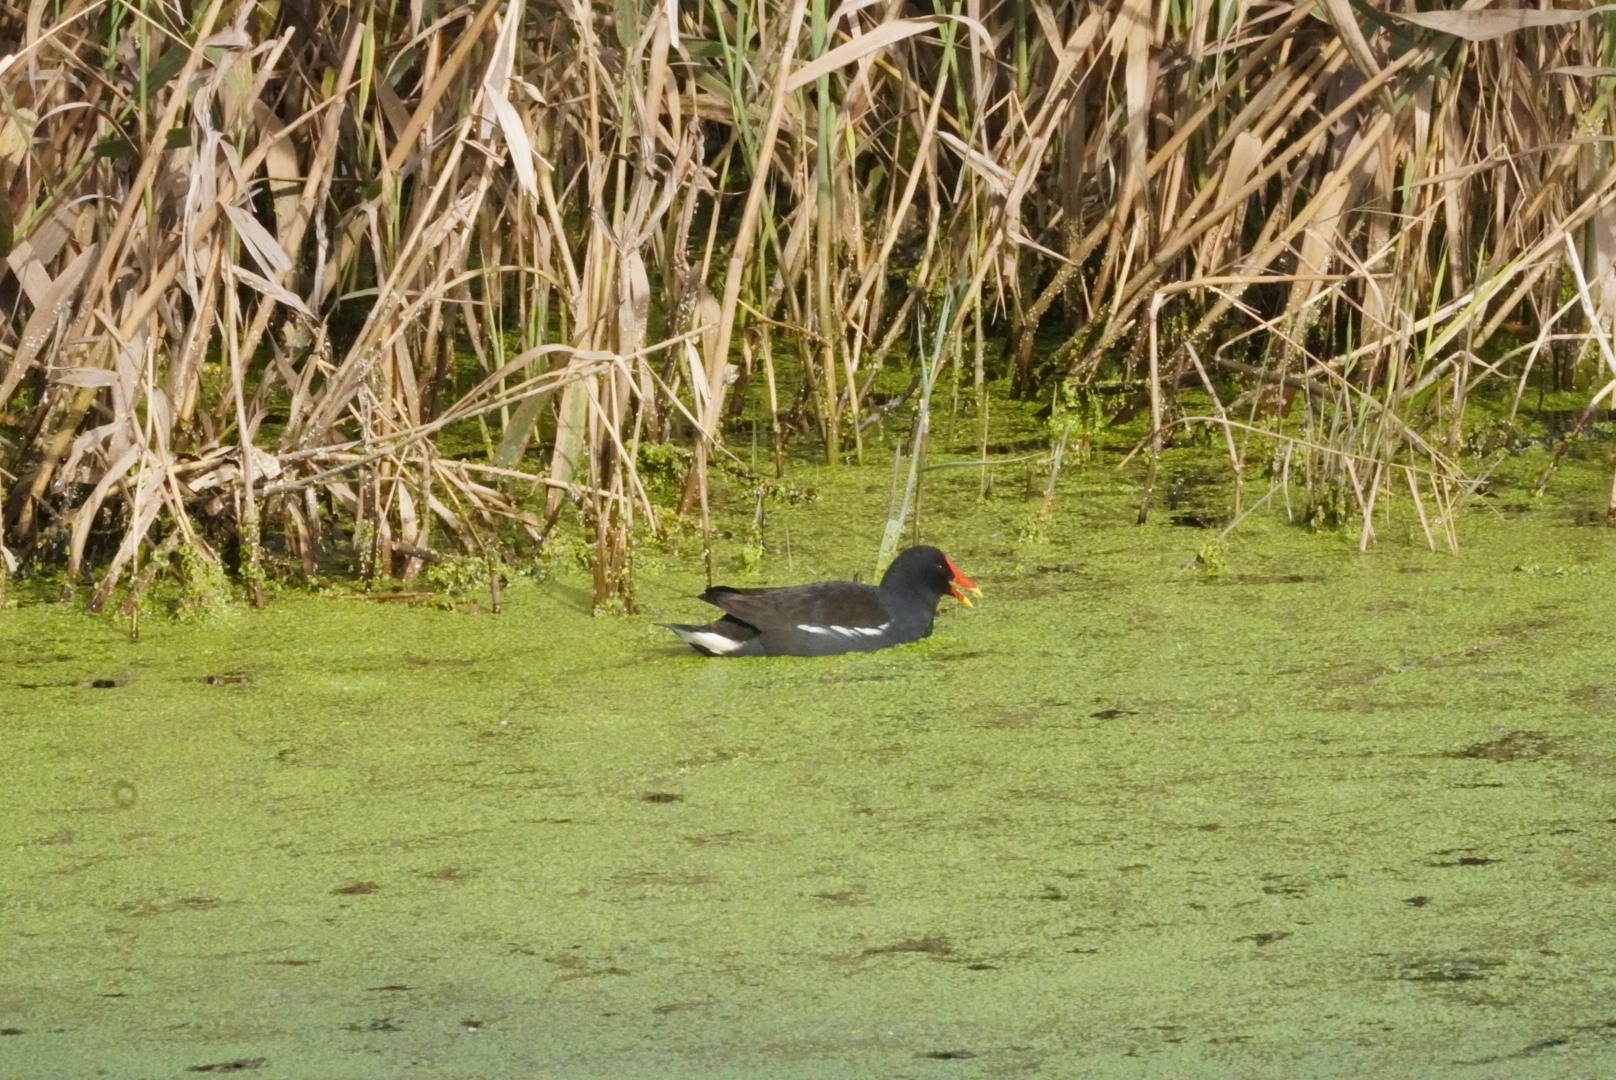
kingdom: Animalia
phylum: Chordata
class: Aves
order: Gruiformes
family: Rallidae
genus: Gallinula
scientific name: Gallinula chloropus
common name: Common moorhen
